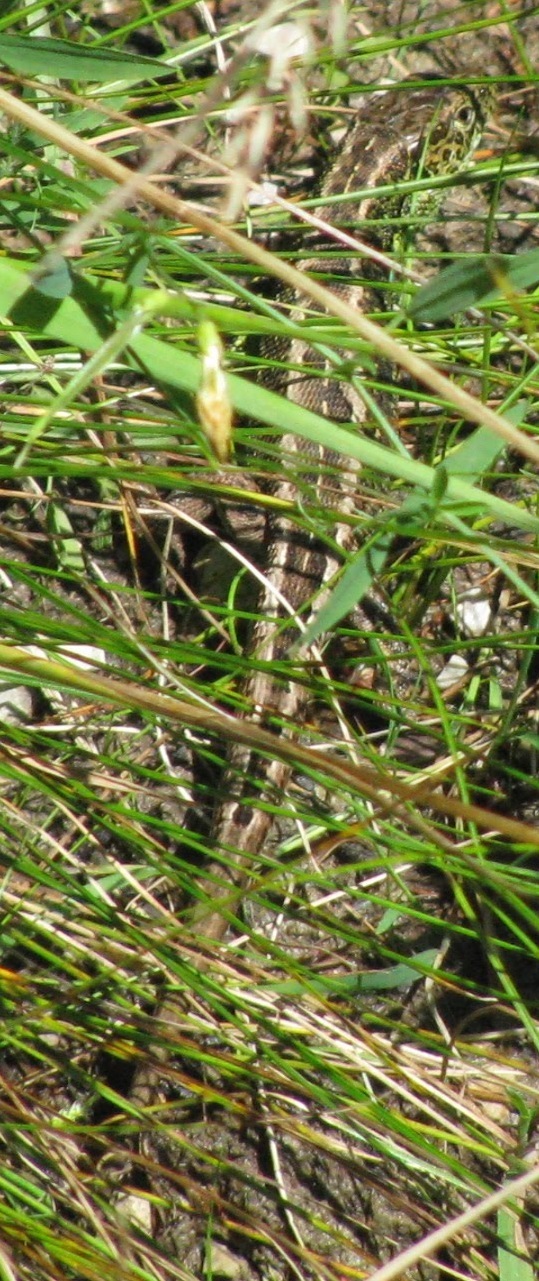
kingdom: Animalia
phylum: Chordata
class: Squamata
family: Lacertidae
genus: Lacerta
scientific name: Lacerta agilis
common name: Sand lizard
